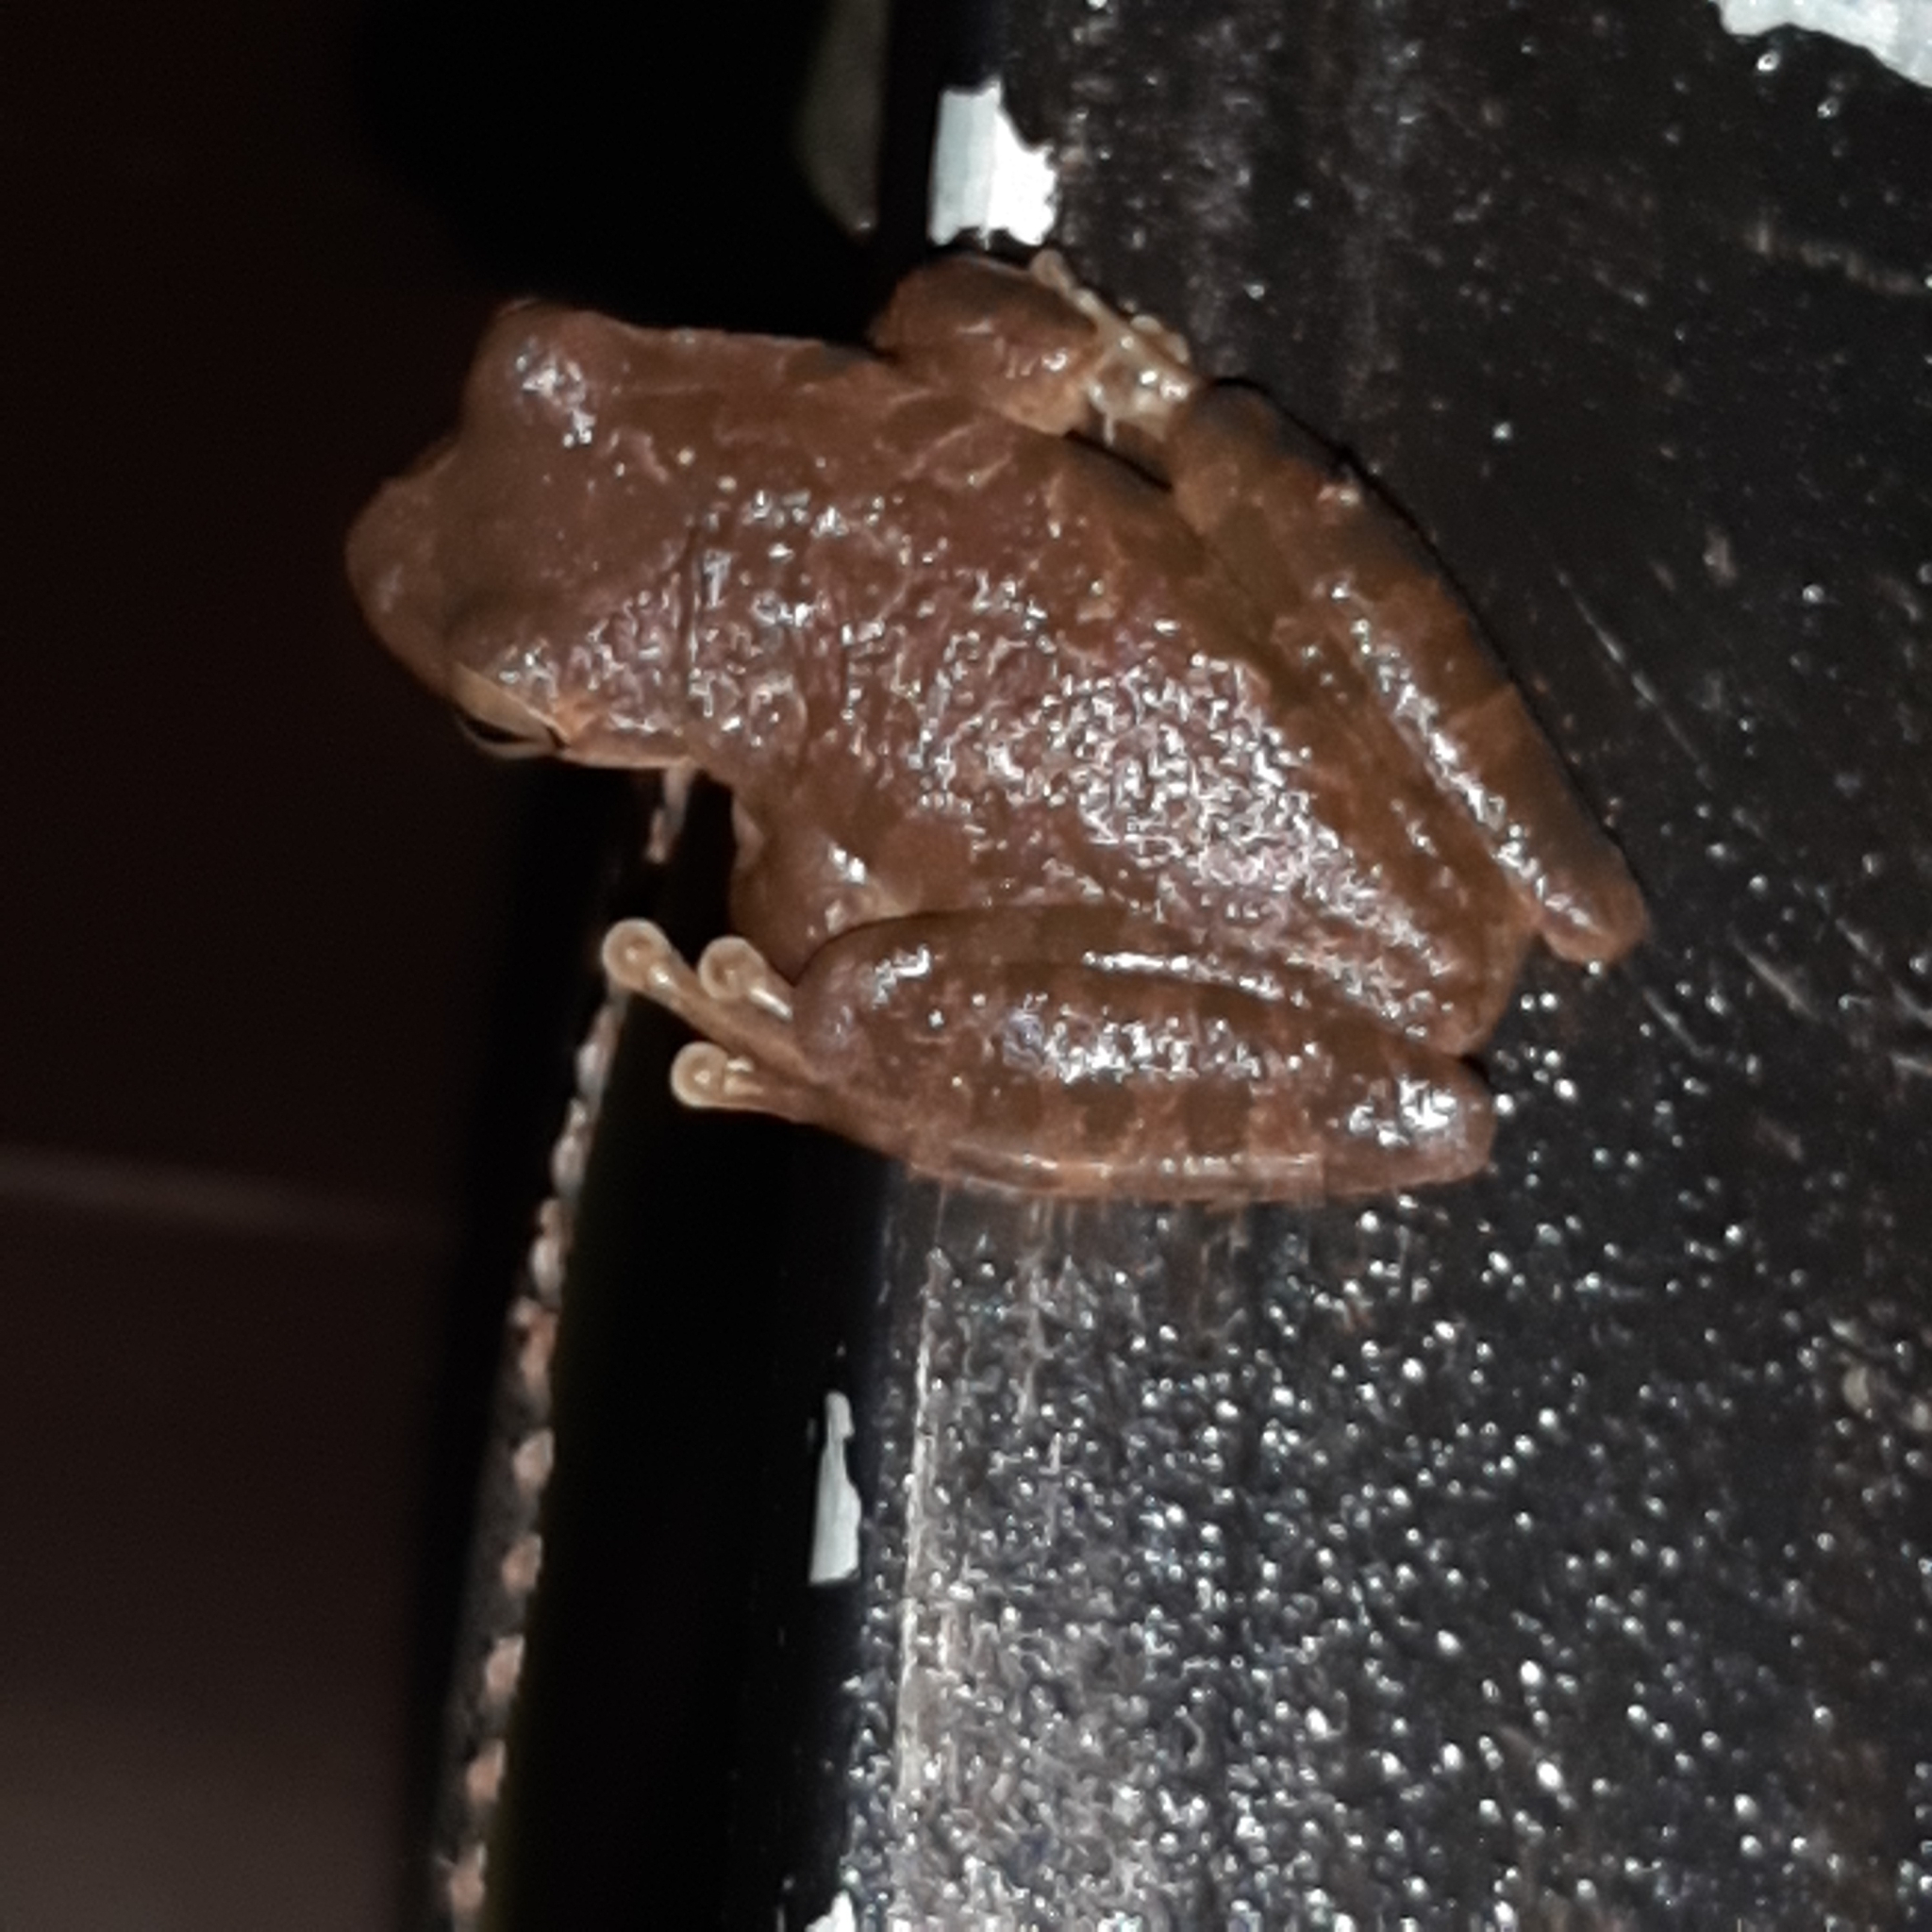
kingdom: Animalia
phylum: Chordata
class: Amphibia
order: Anura
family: Hylidae
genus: Smilisca
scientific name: Smilisca sordida
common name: Veragua cross-banded treefrog
